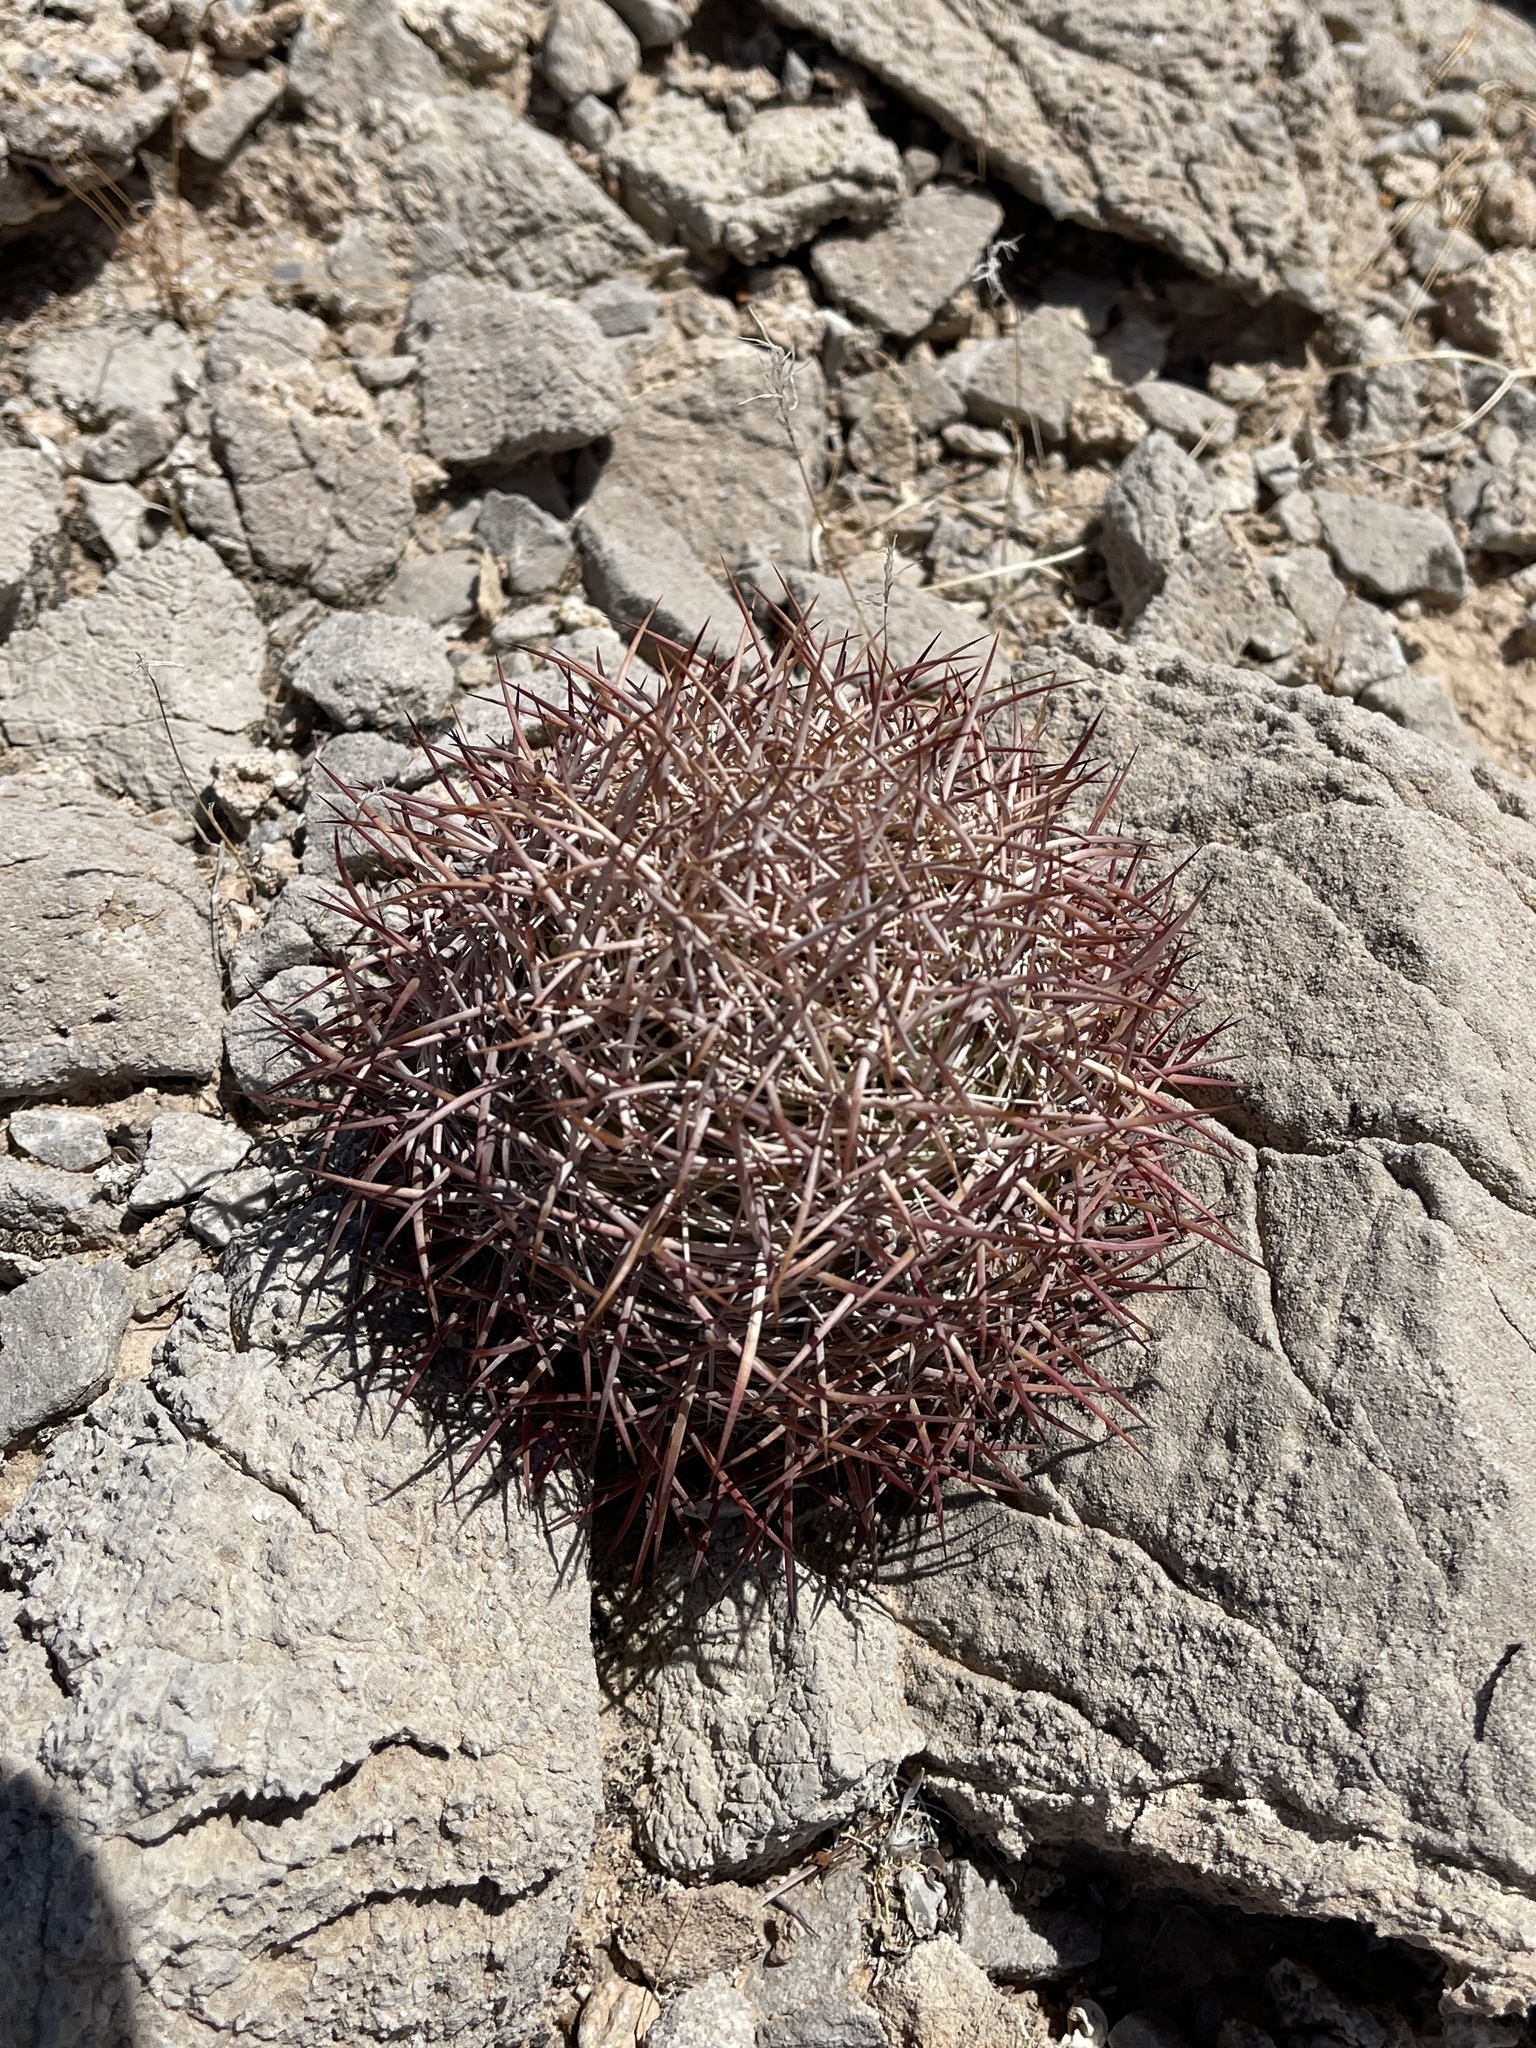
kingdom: Plantae
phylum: Tracheophyta
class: Magnoliopsida
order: Caryophyllales
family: Cactaceae
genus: Ferocactus
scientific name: Ferocactus cylindraceus
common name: California barrel cactus
